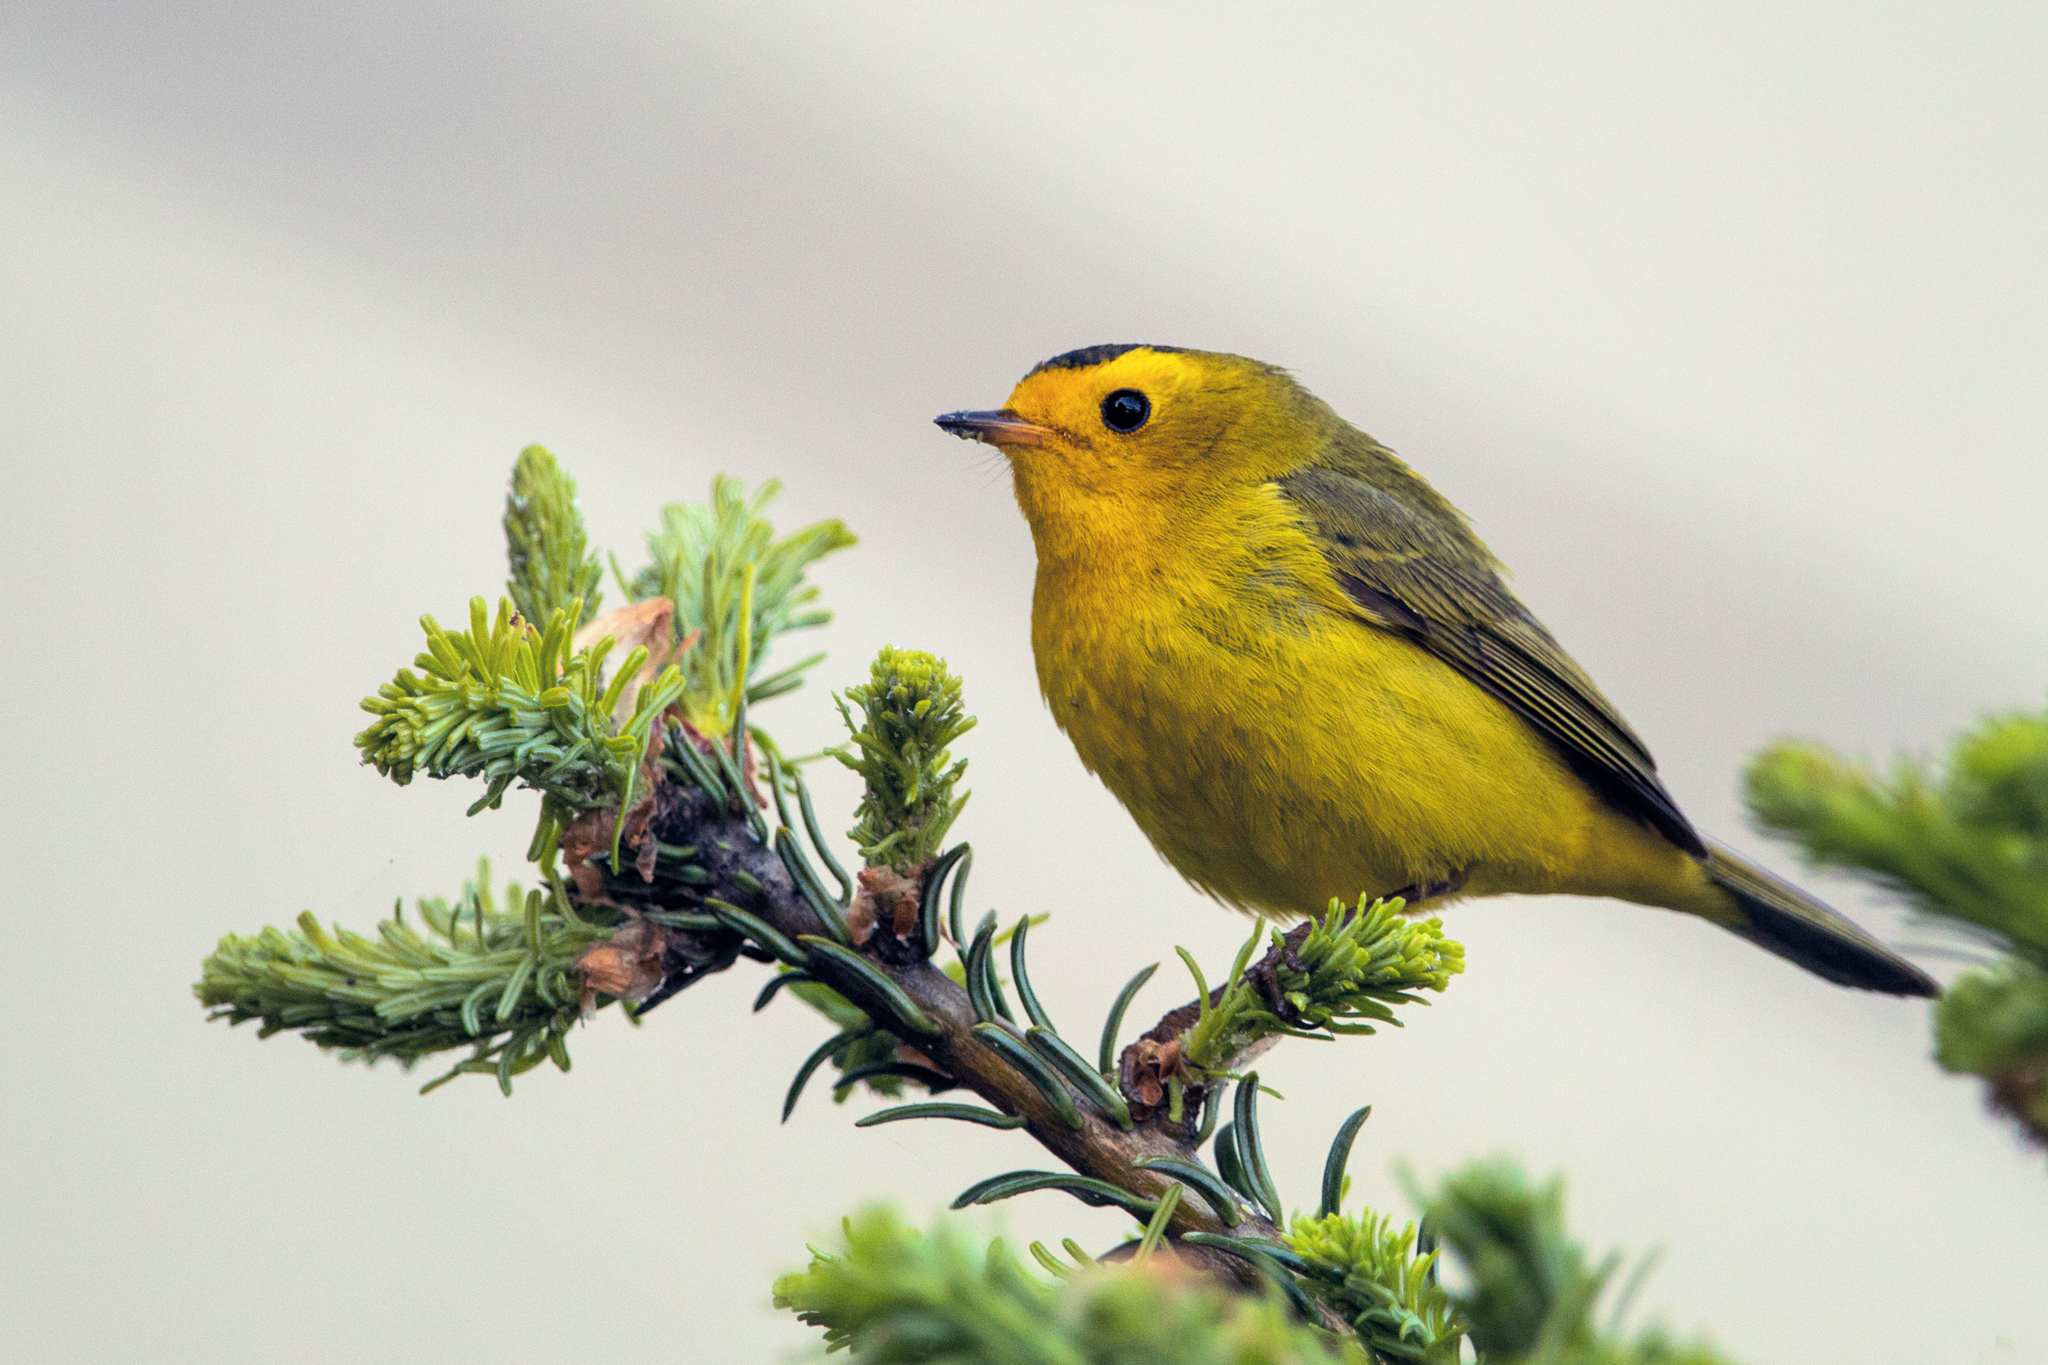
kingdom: Animalia
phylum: Chordata
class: Aves
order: Passeriformes
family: Parulidae
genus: Cardellina
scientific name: Cardellina pusilla
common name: Wilson's warbler
